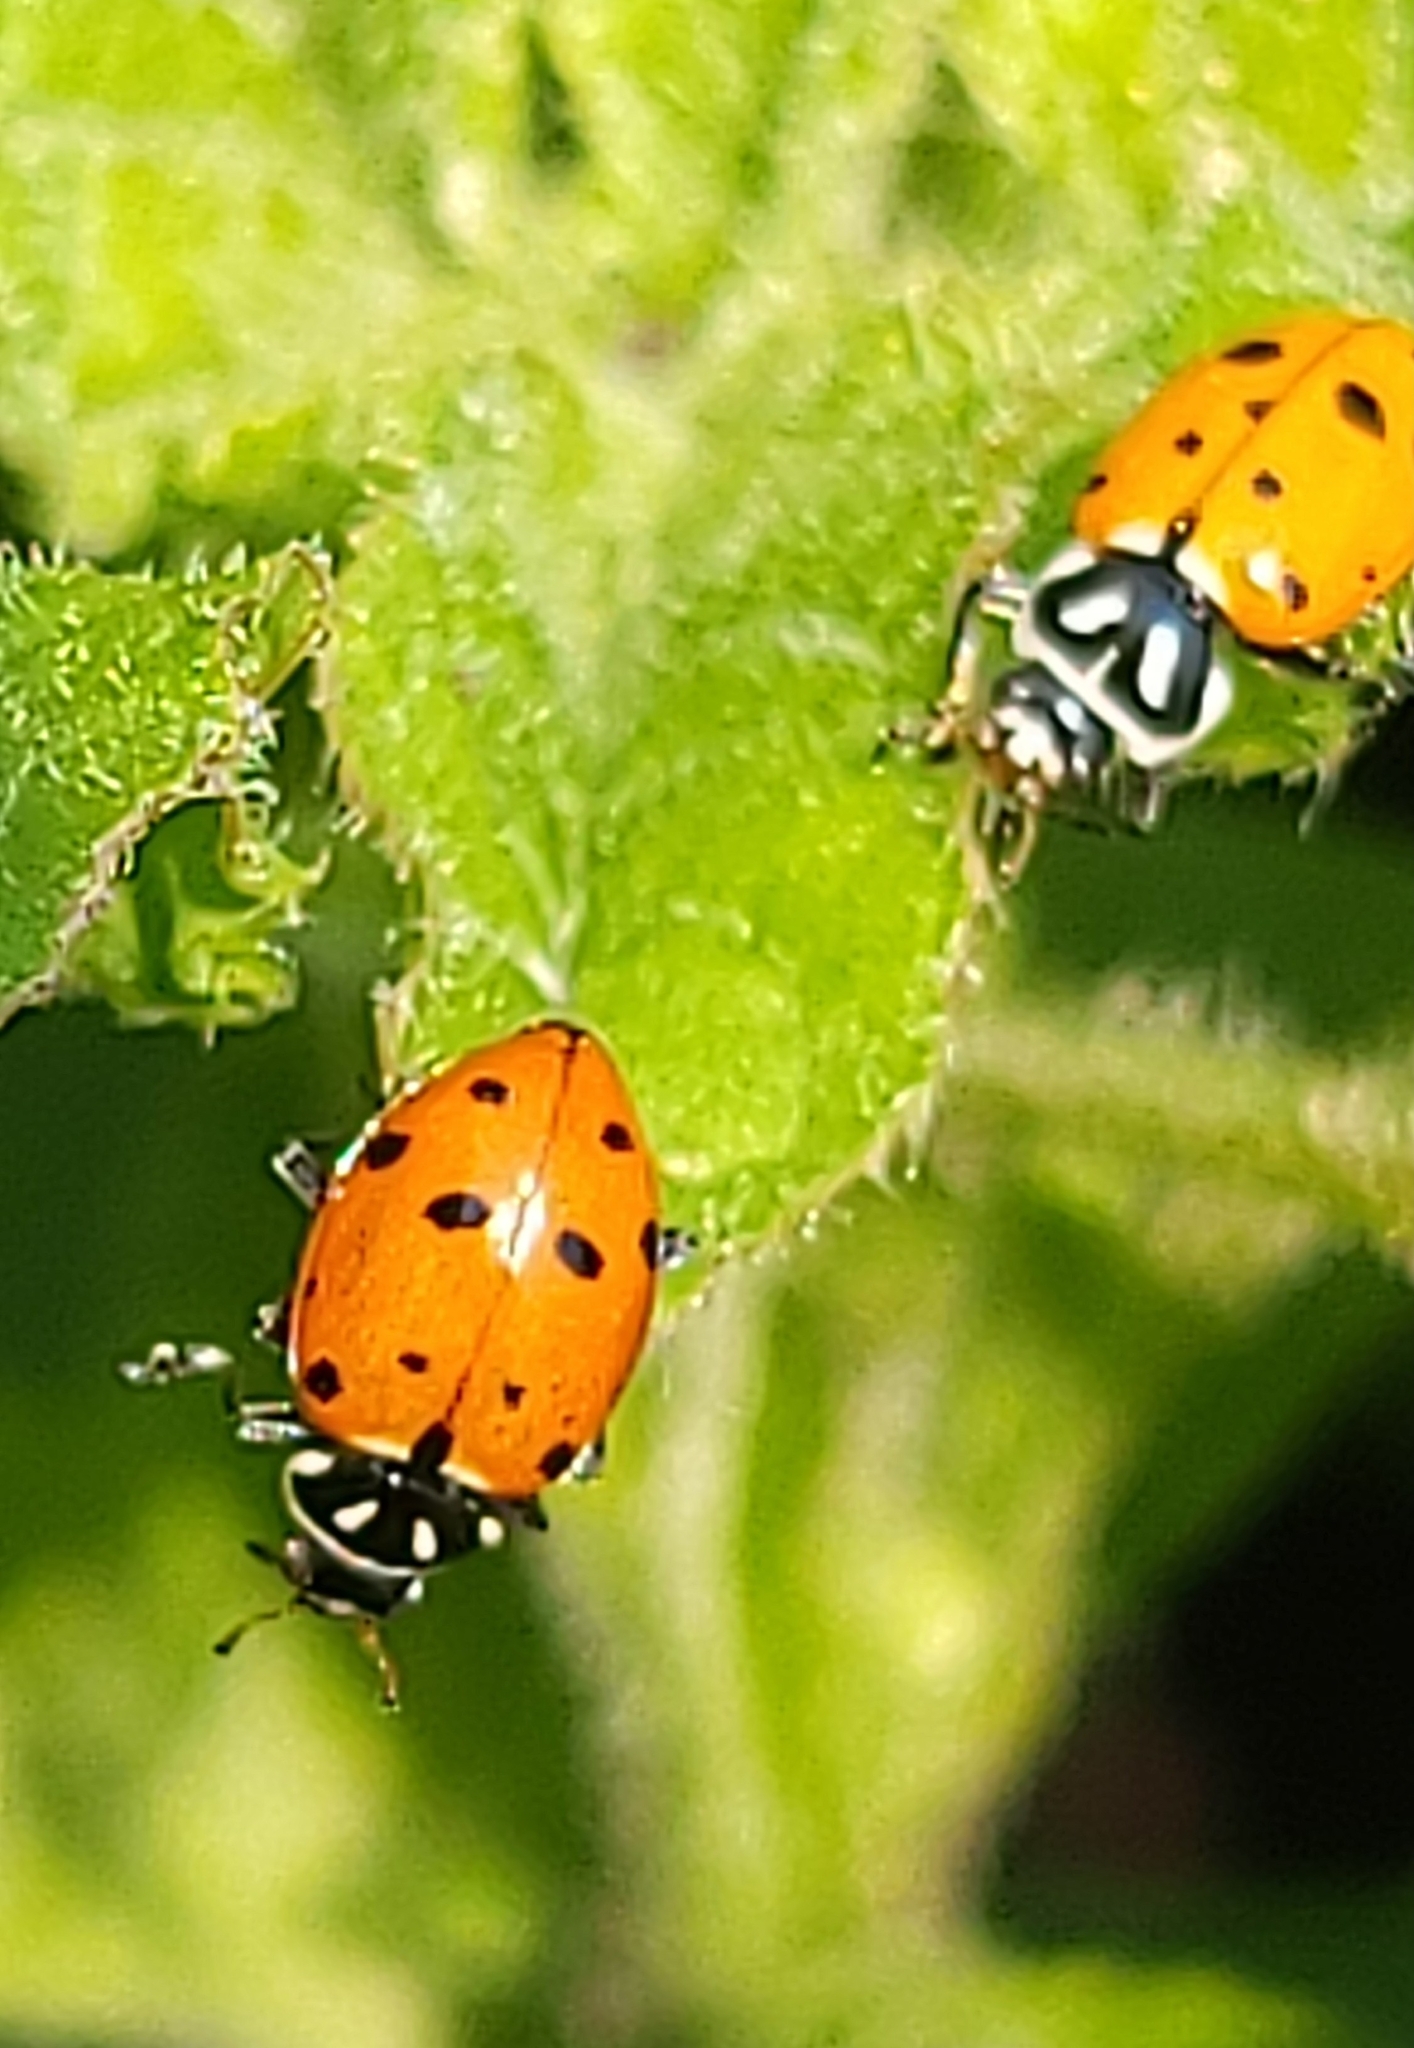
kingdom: Animalia
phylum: Arthropoda
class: Insecta
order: Coleoptera
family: Coccinellidae
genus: Hippodamia
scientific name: Hippodamia convergens
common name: Convergent lady beetle
